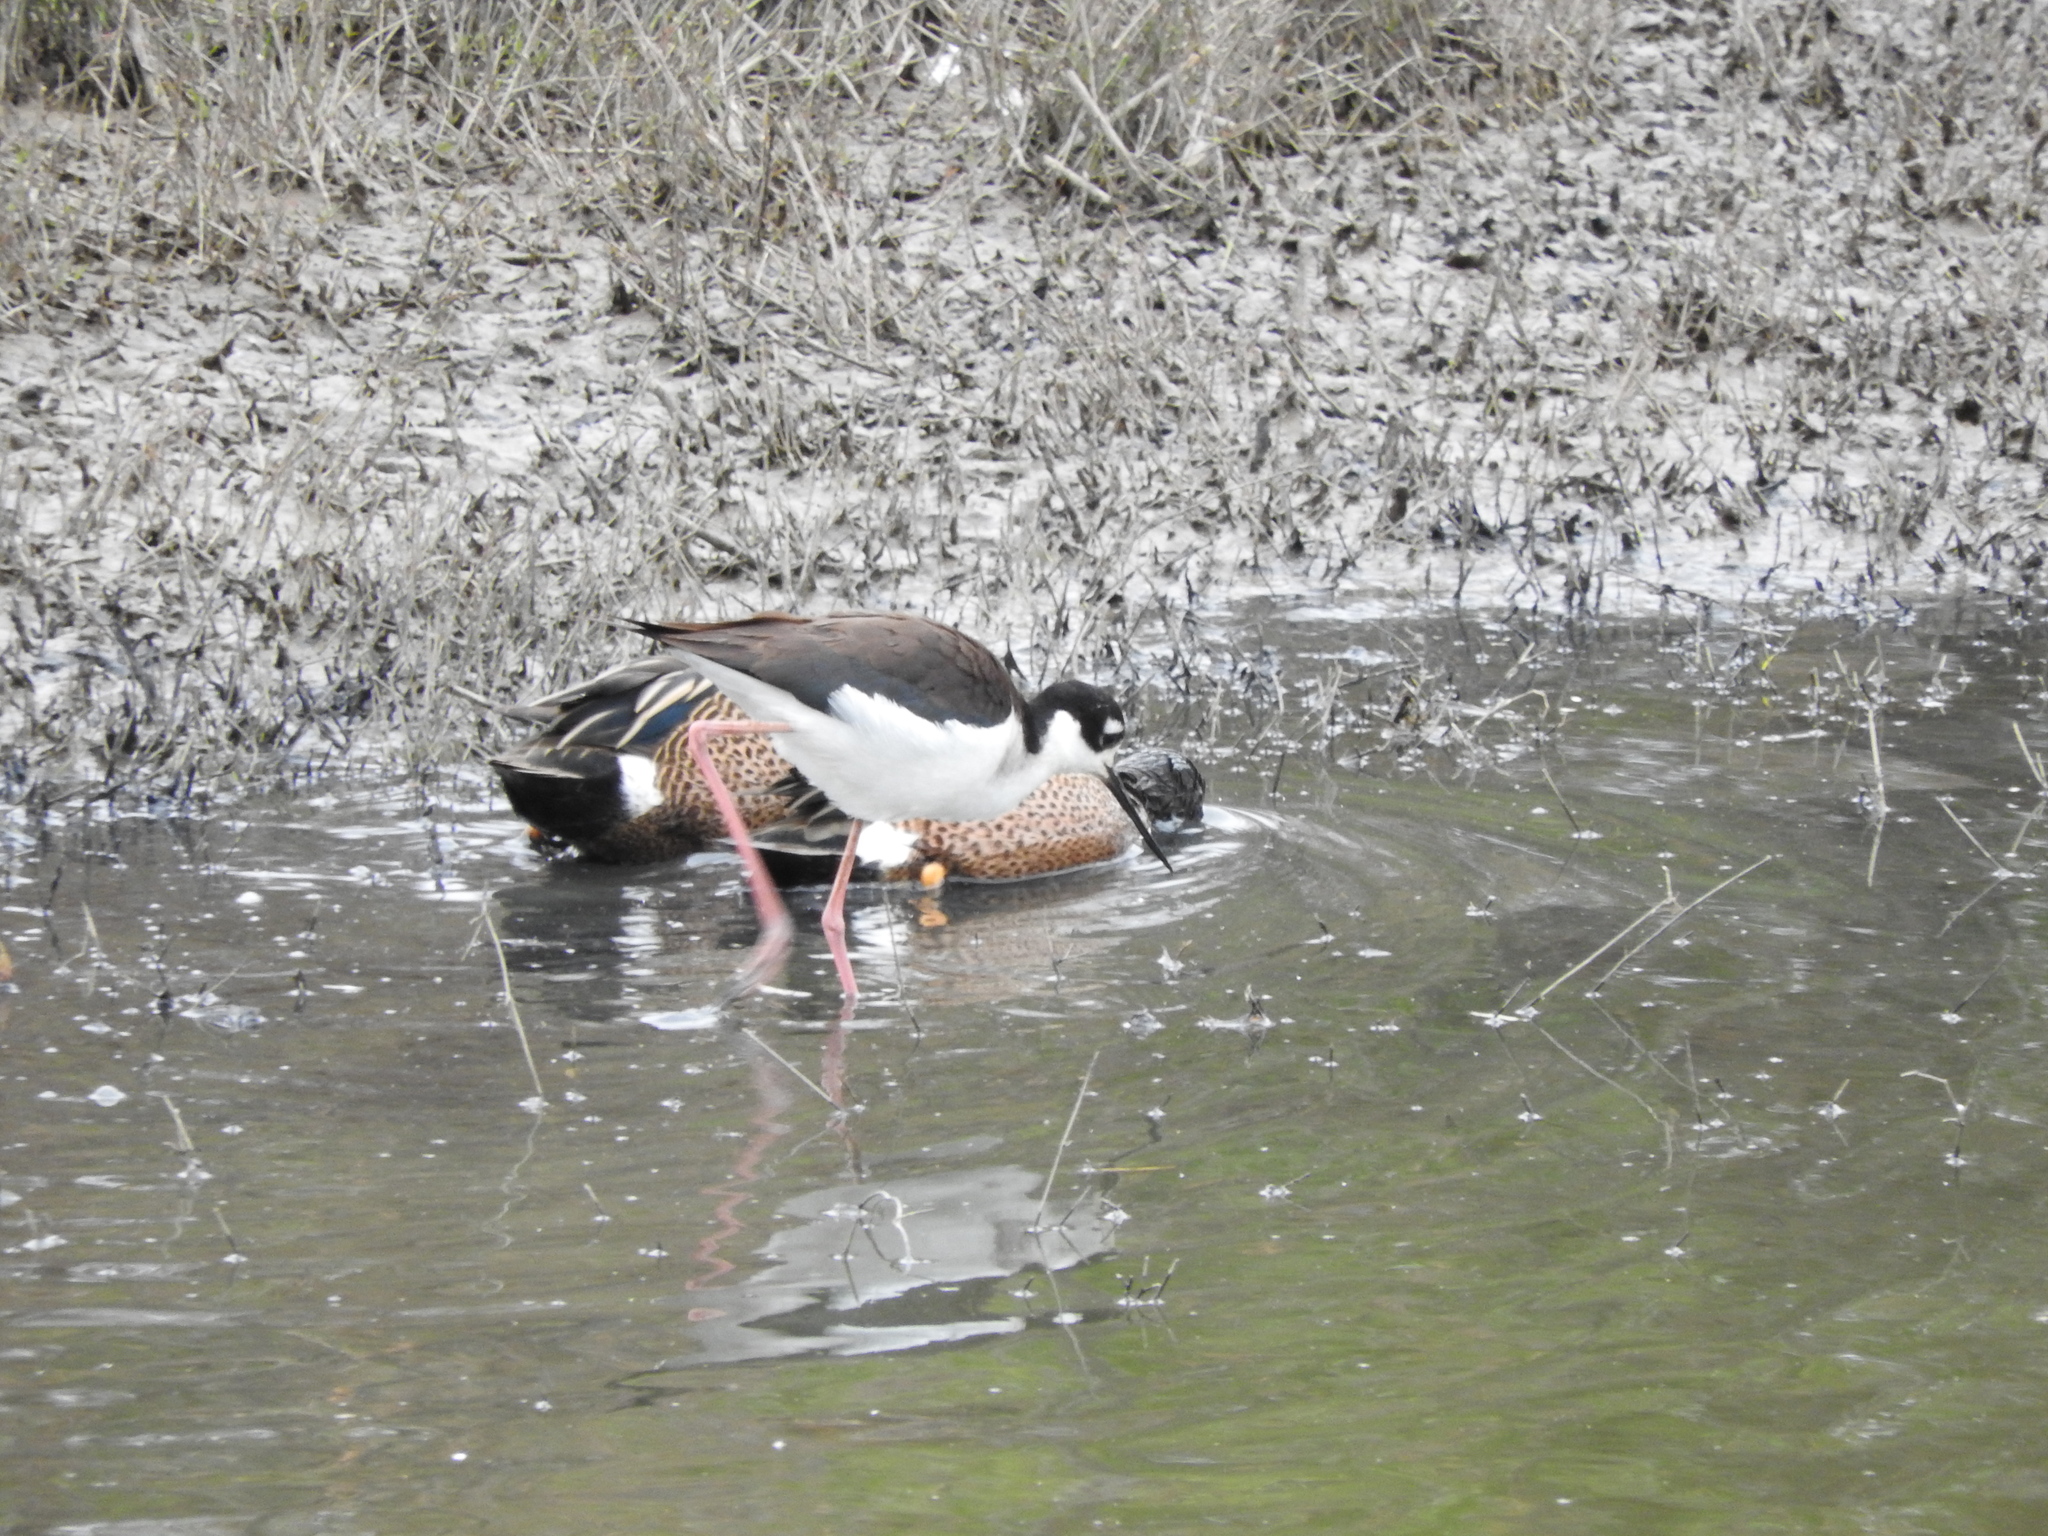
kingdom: Animalia
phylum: Chordata
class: Aves
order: Anseriformes
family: Anatidae
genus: Spatula
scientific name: Spatula cyanoptera
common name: Cinnamon teal
